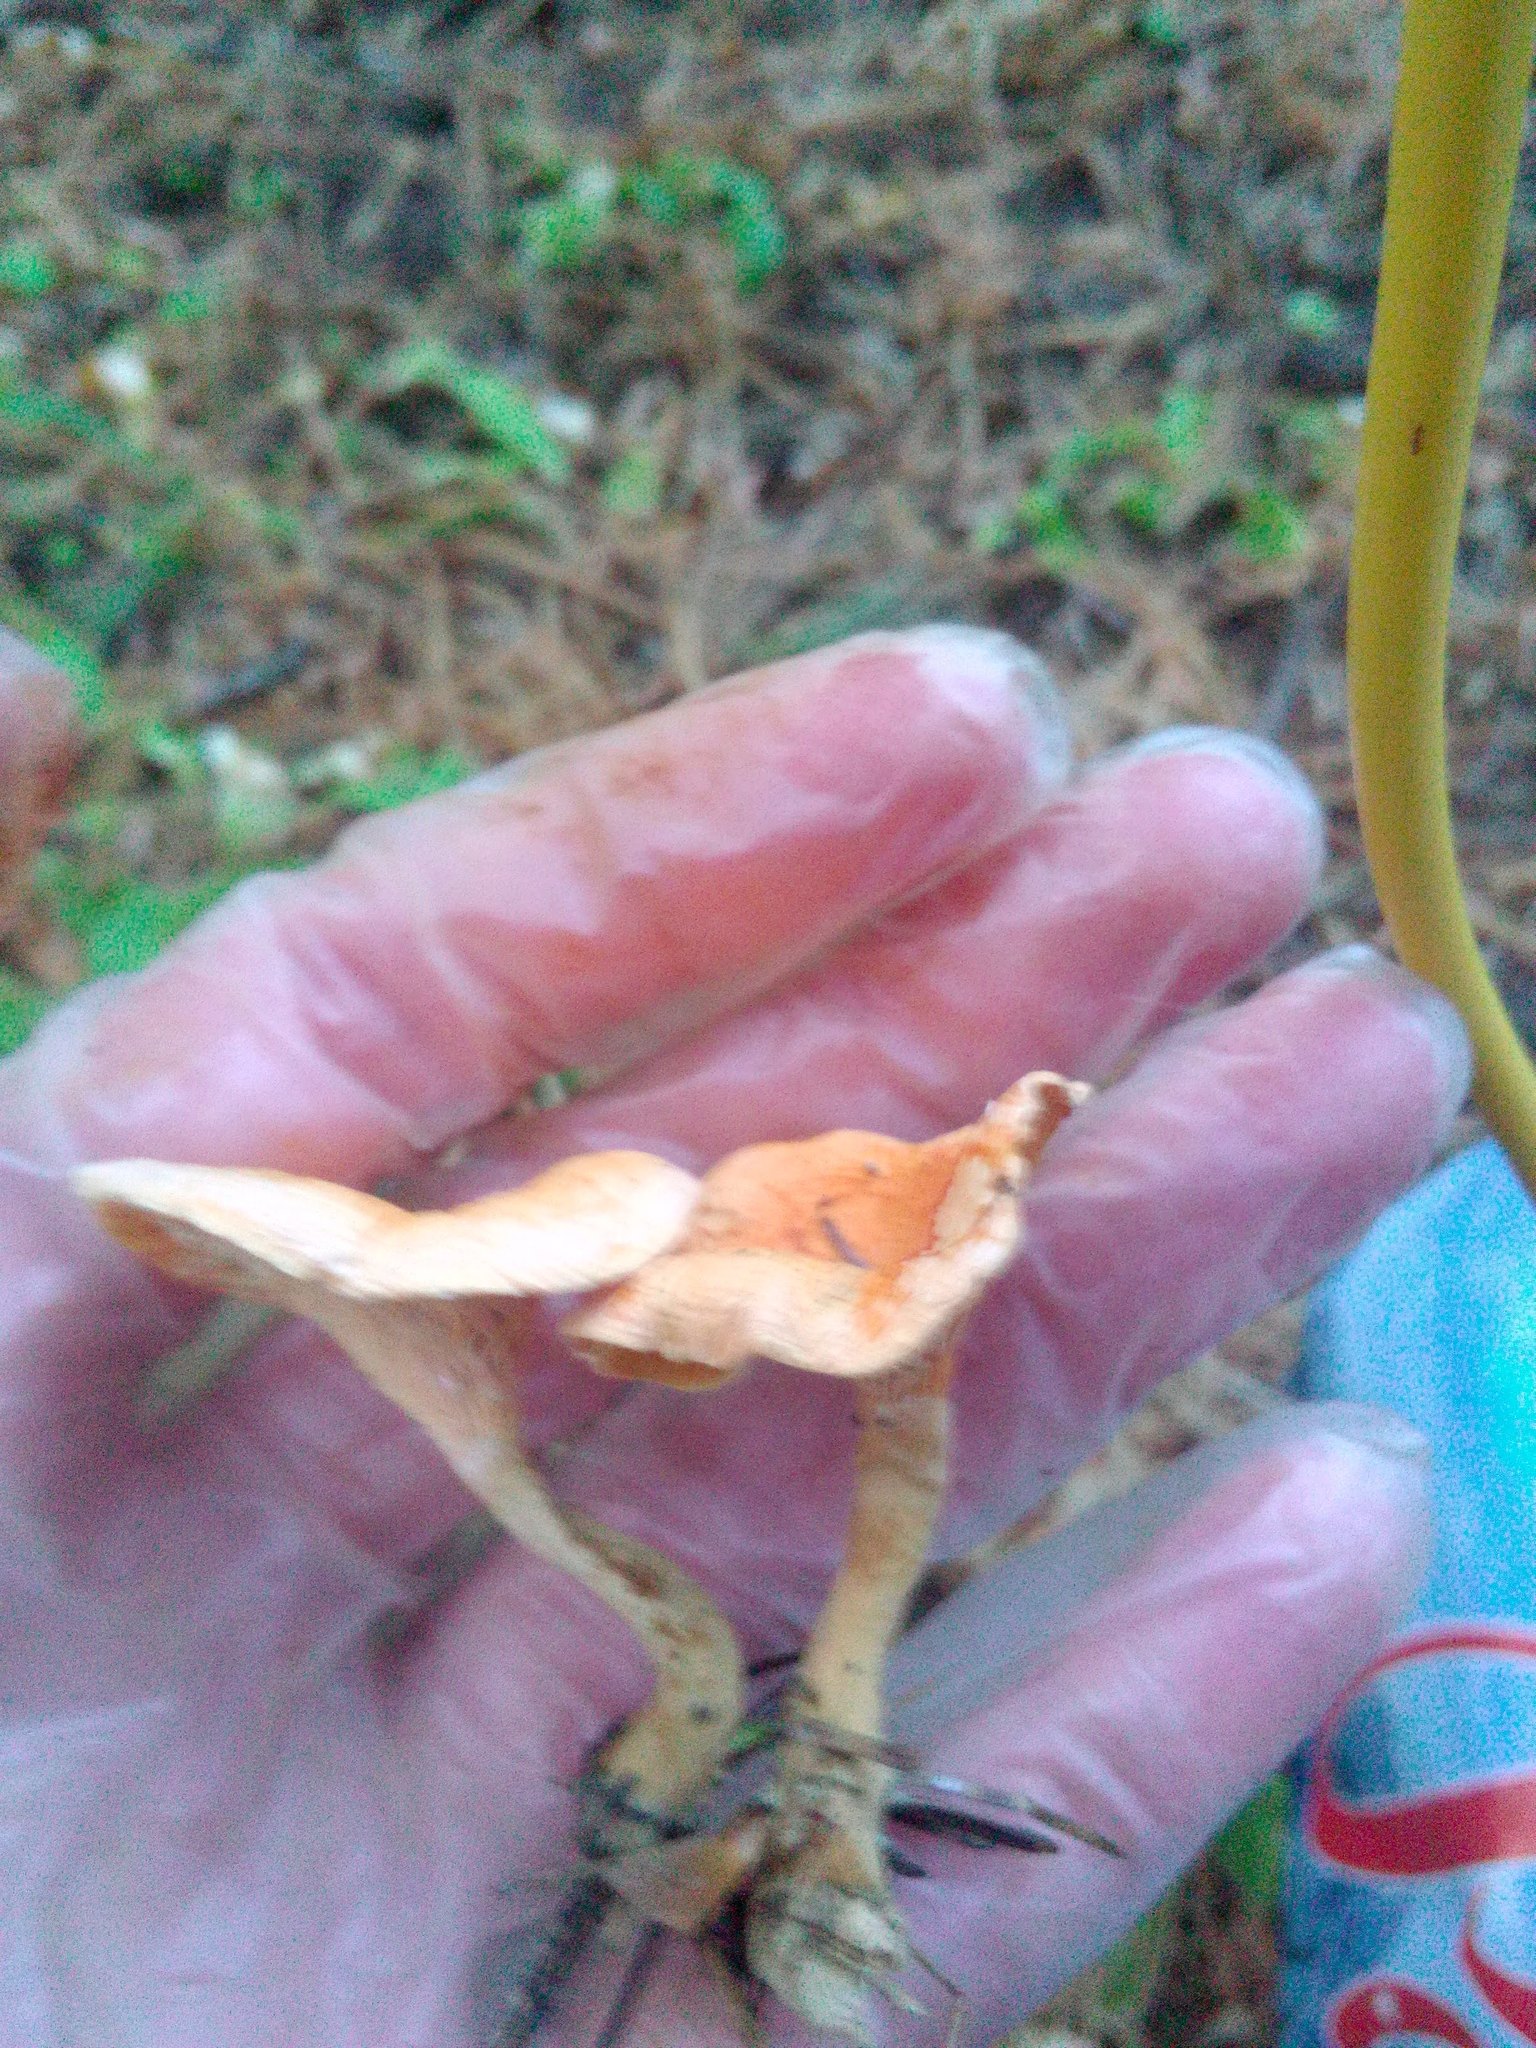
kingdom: Fungi
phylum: Basidiomycota
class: Agaricomycetes
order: Boletales
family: Hygrophoropsidaceae
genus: Hygrophoropsis
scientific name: Hygrophoropsis aurantiaca
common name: False chanterelle
